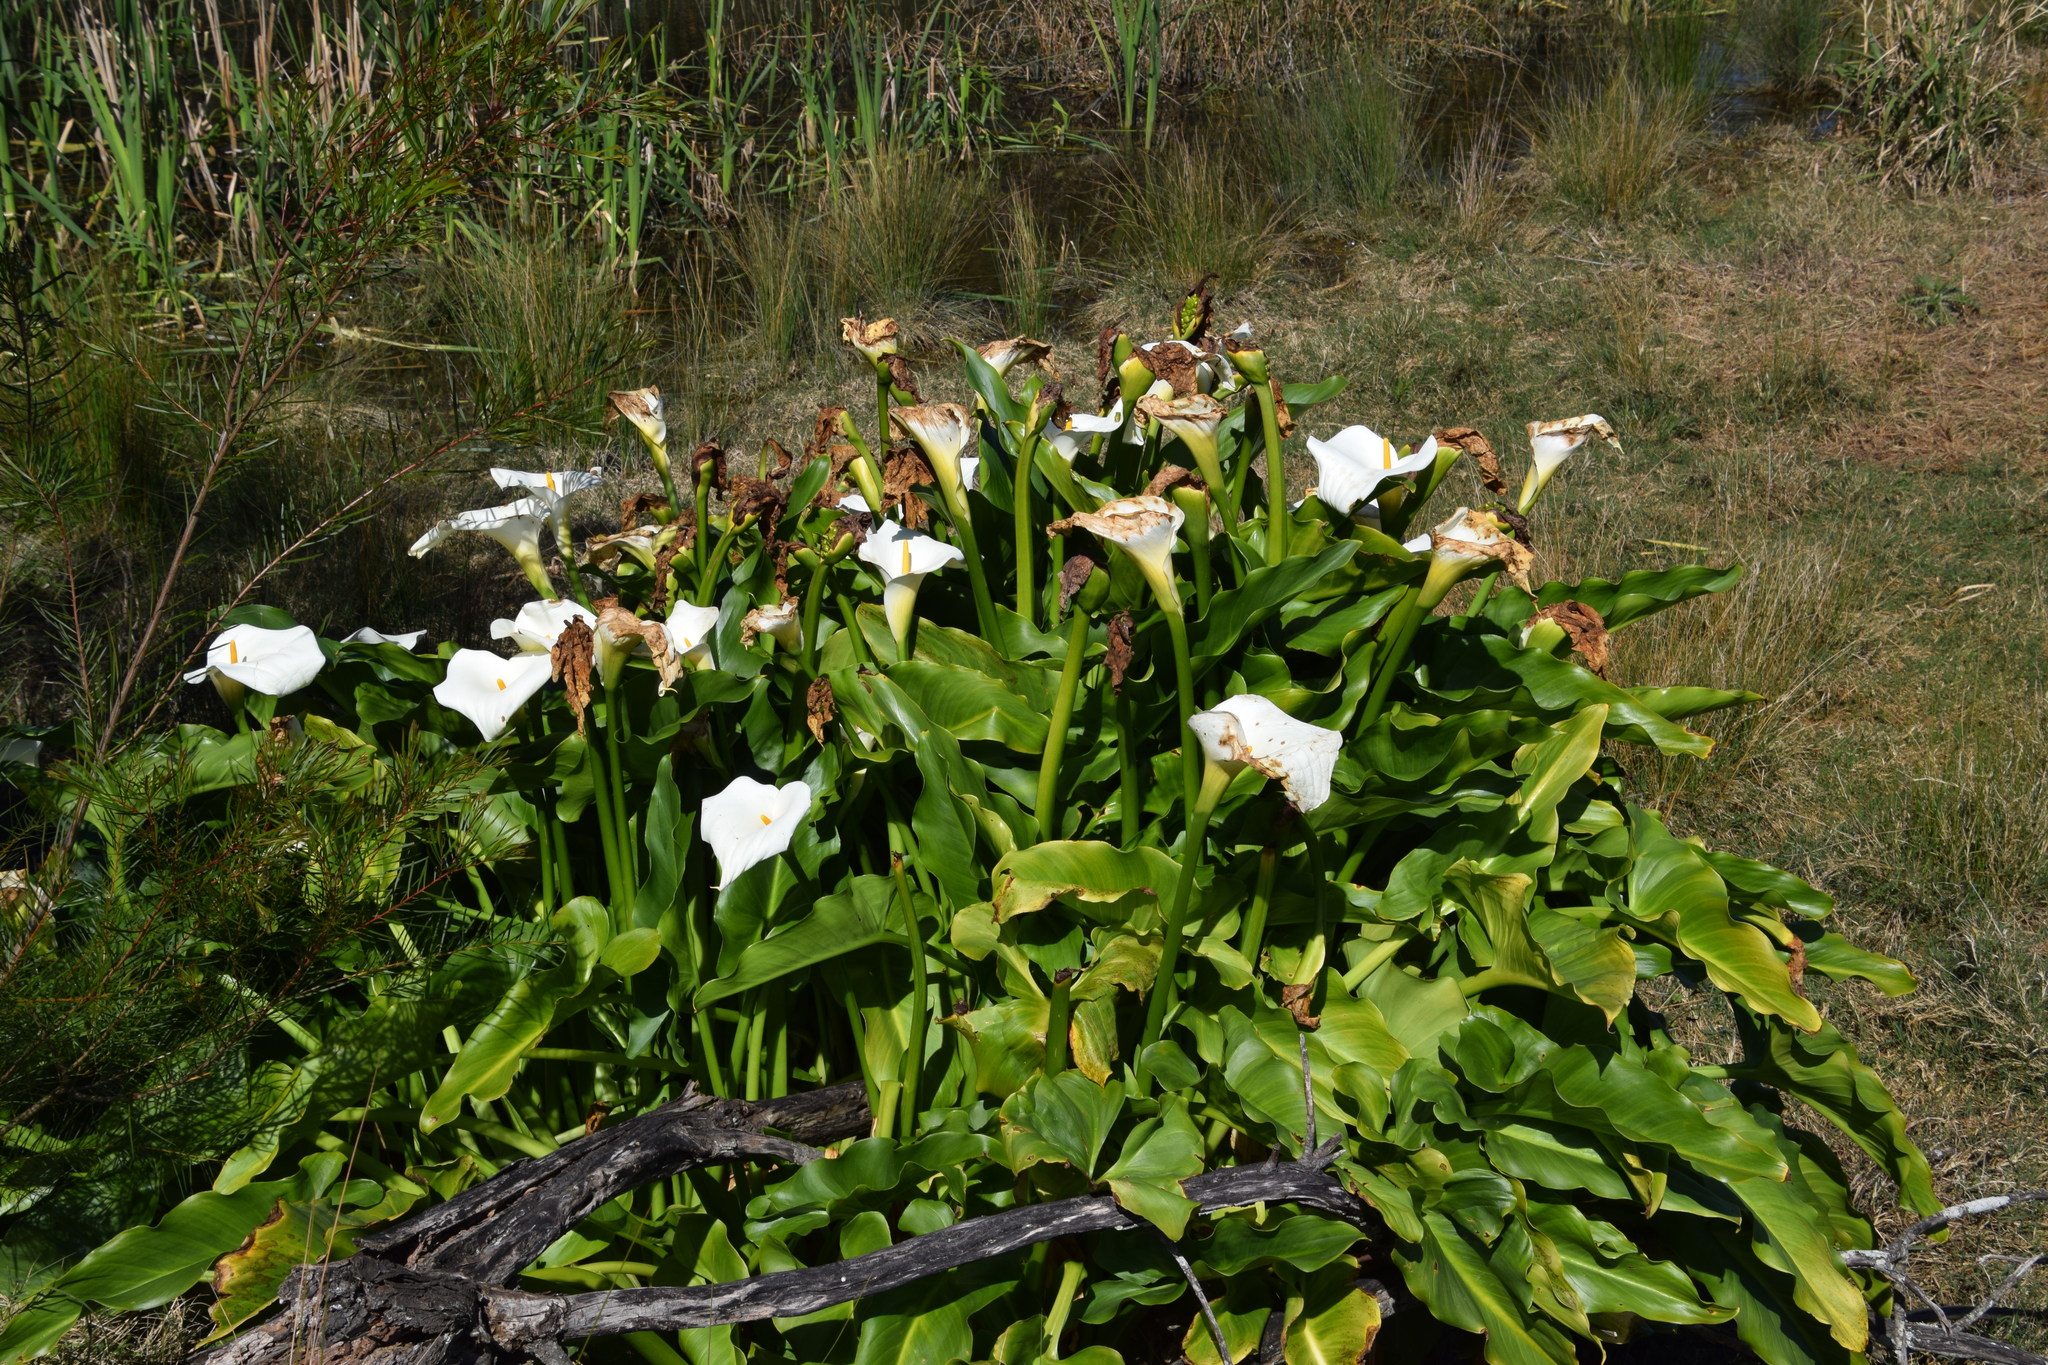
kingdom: Plantae
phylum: Tracheophyta
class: Liliopsida
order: Alismatales
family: Araceae
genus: Zantedeschia
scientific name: Zantedeschia aethiopica
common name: Altar-lily
